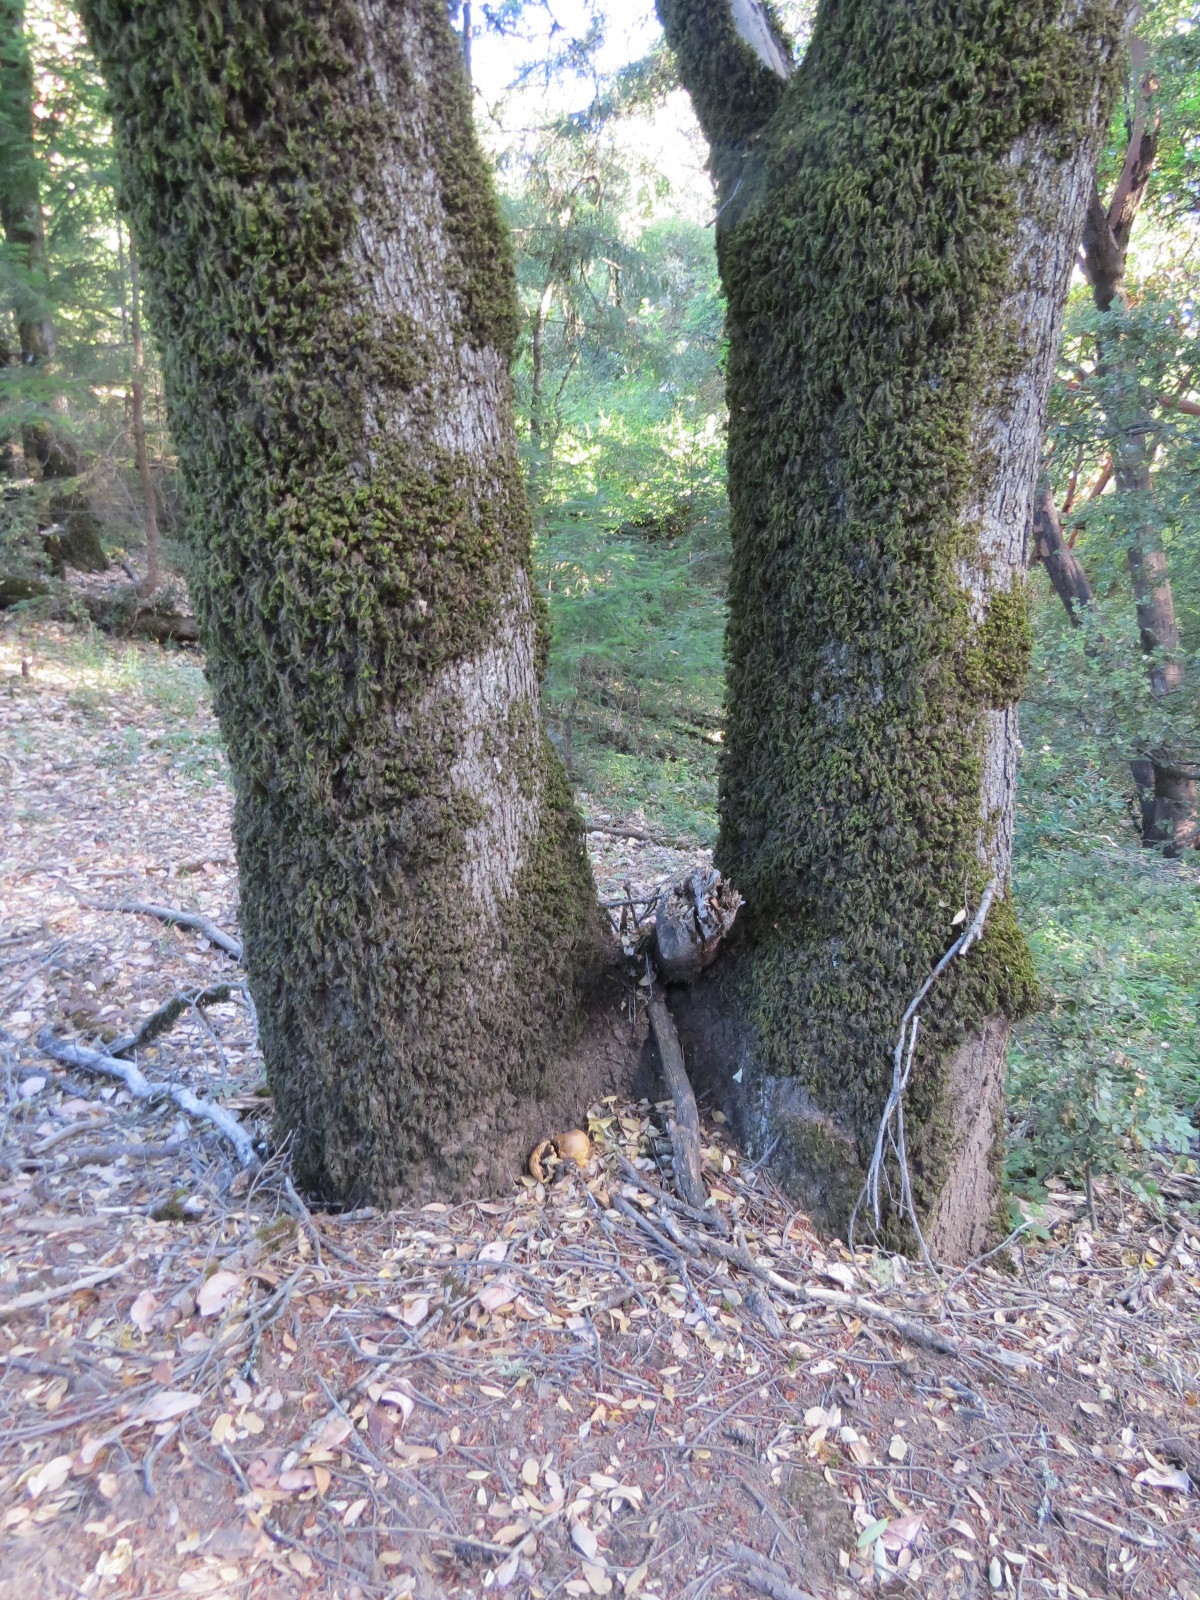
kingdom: Fungi
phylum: Basidiomycota
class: Agaricomycetes
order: Agaricales
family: Agaricaceae
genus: Agaricus
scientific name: Agaricus augustus
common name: Prince
